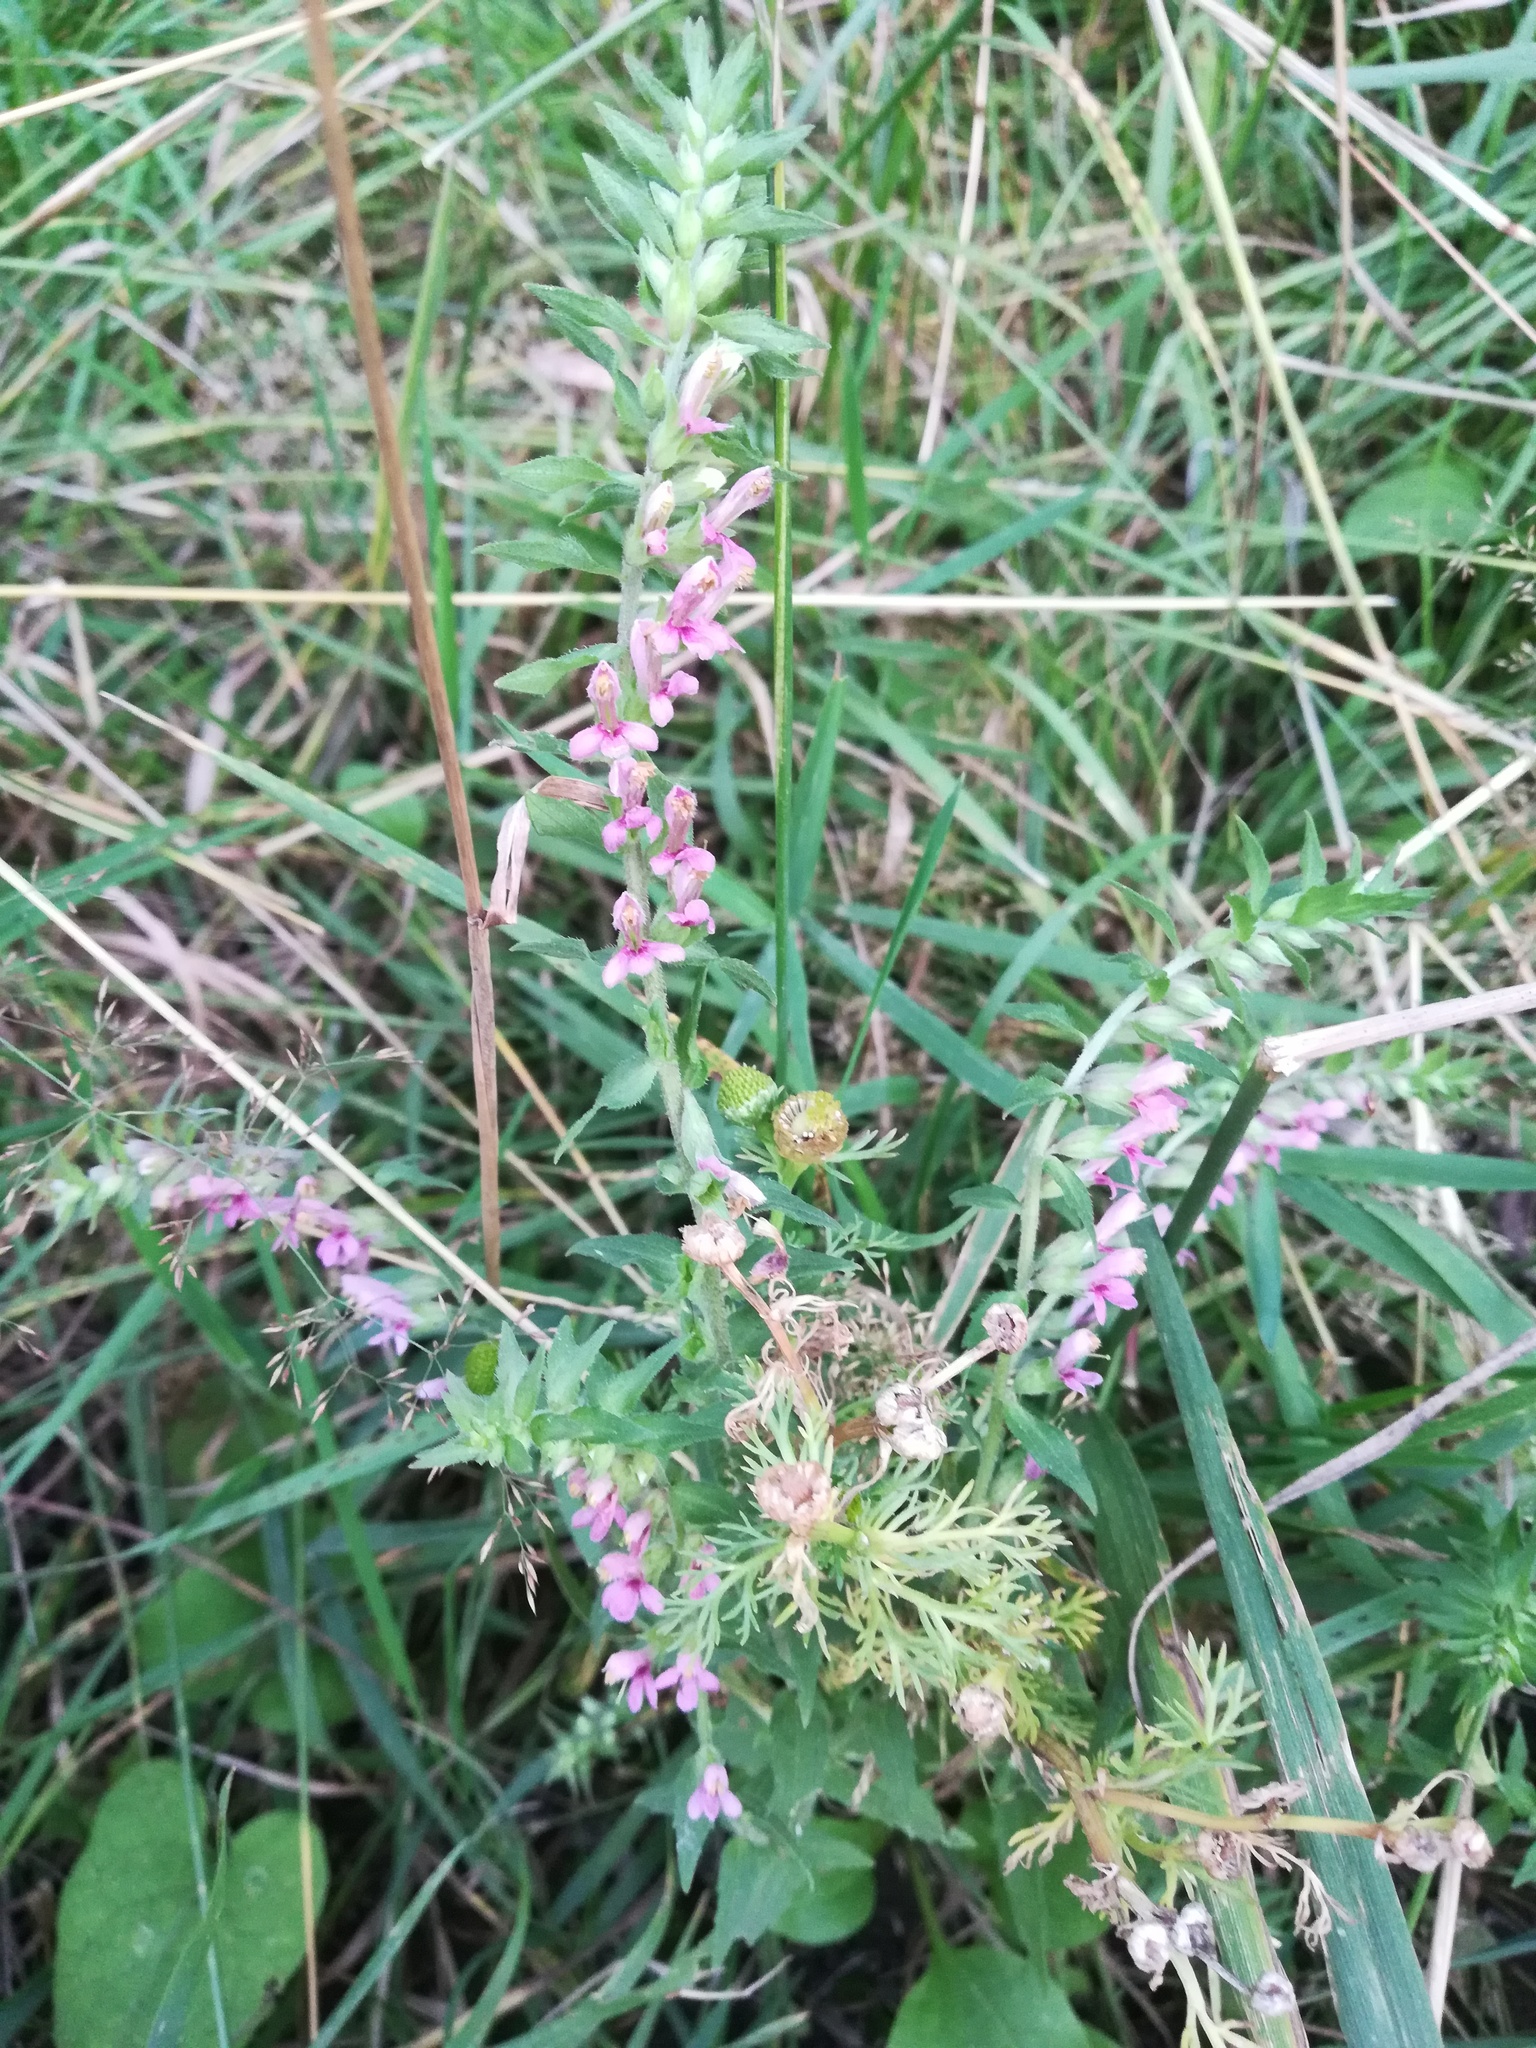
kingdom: Plantae
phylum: Tracheophyta
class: Magnoliopsida
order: Lamiales
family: Orobanchaceae
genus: Odontites
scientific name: Odontites vulgaris
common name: Broomrape
